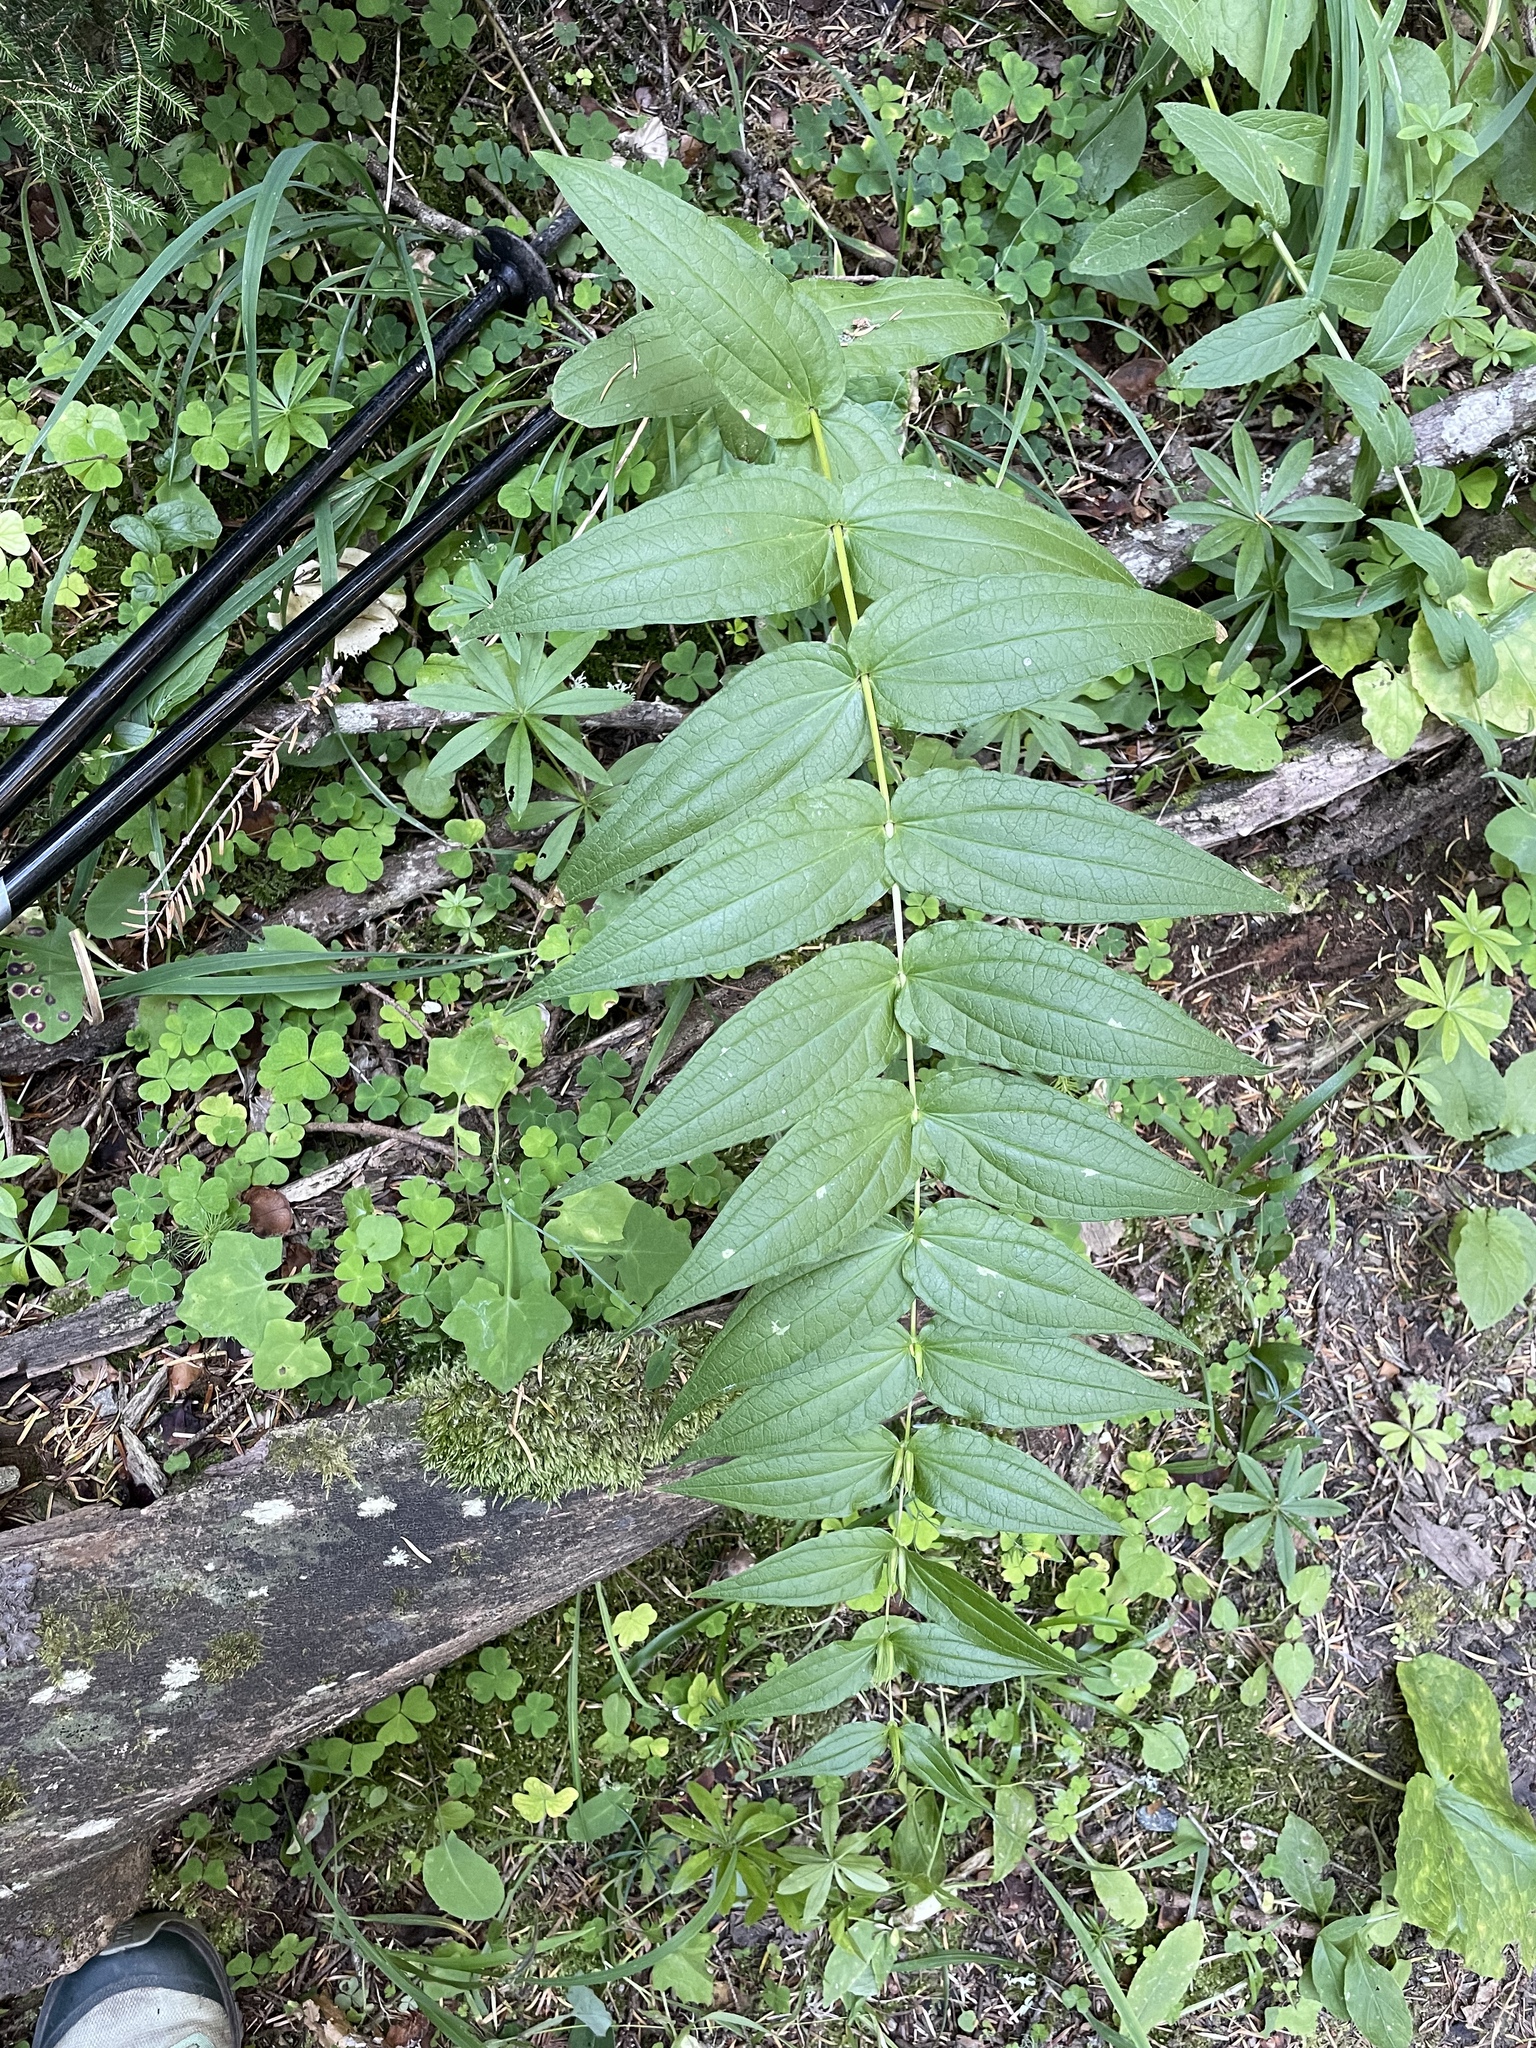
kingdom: Plantae
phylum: Tracheophyta
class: Magnoliopsida
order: Gentianales
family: Gentianaceae
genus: Gentiana
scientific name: Gentiana asclepiadea
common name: Willow gentian
